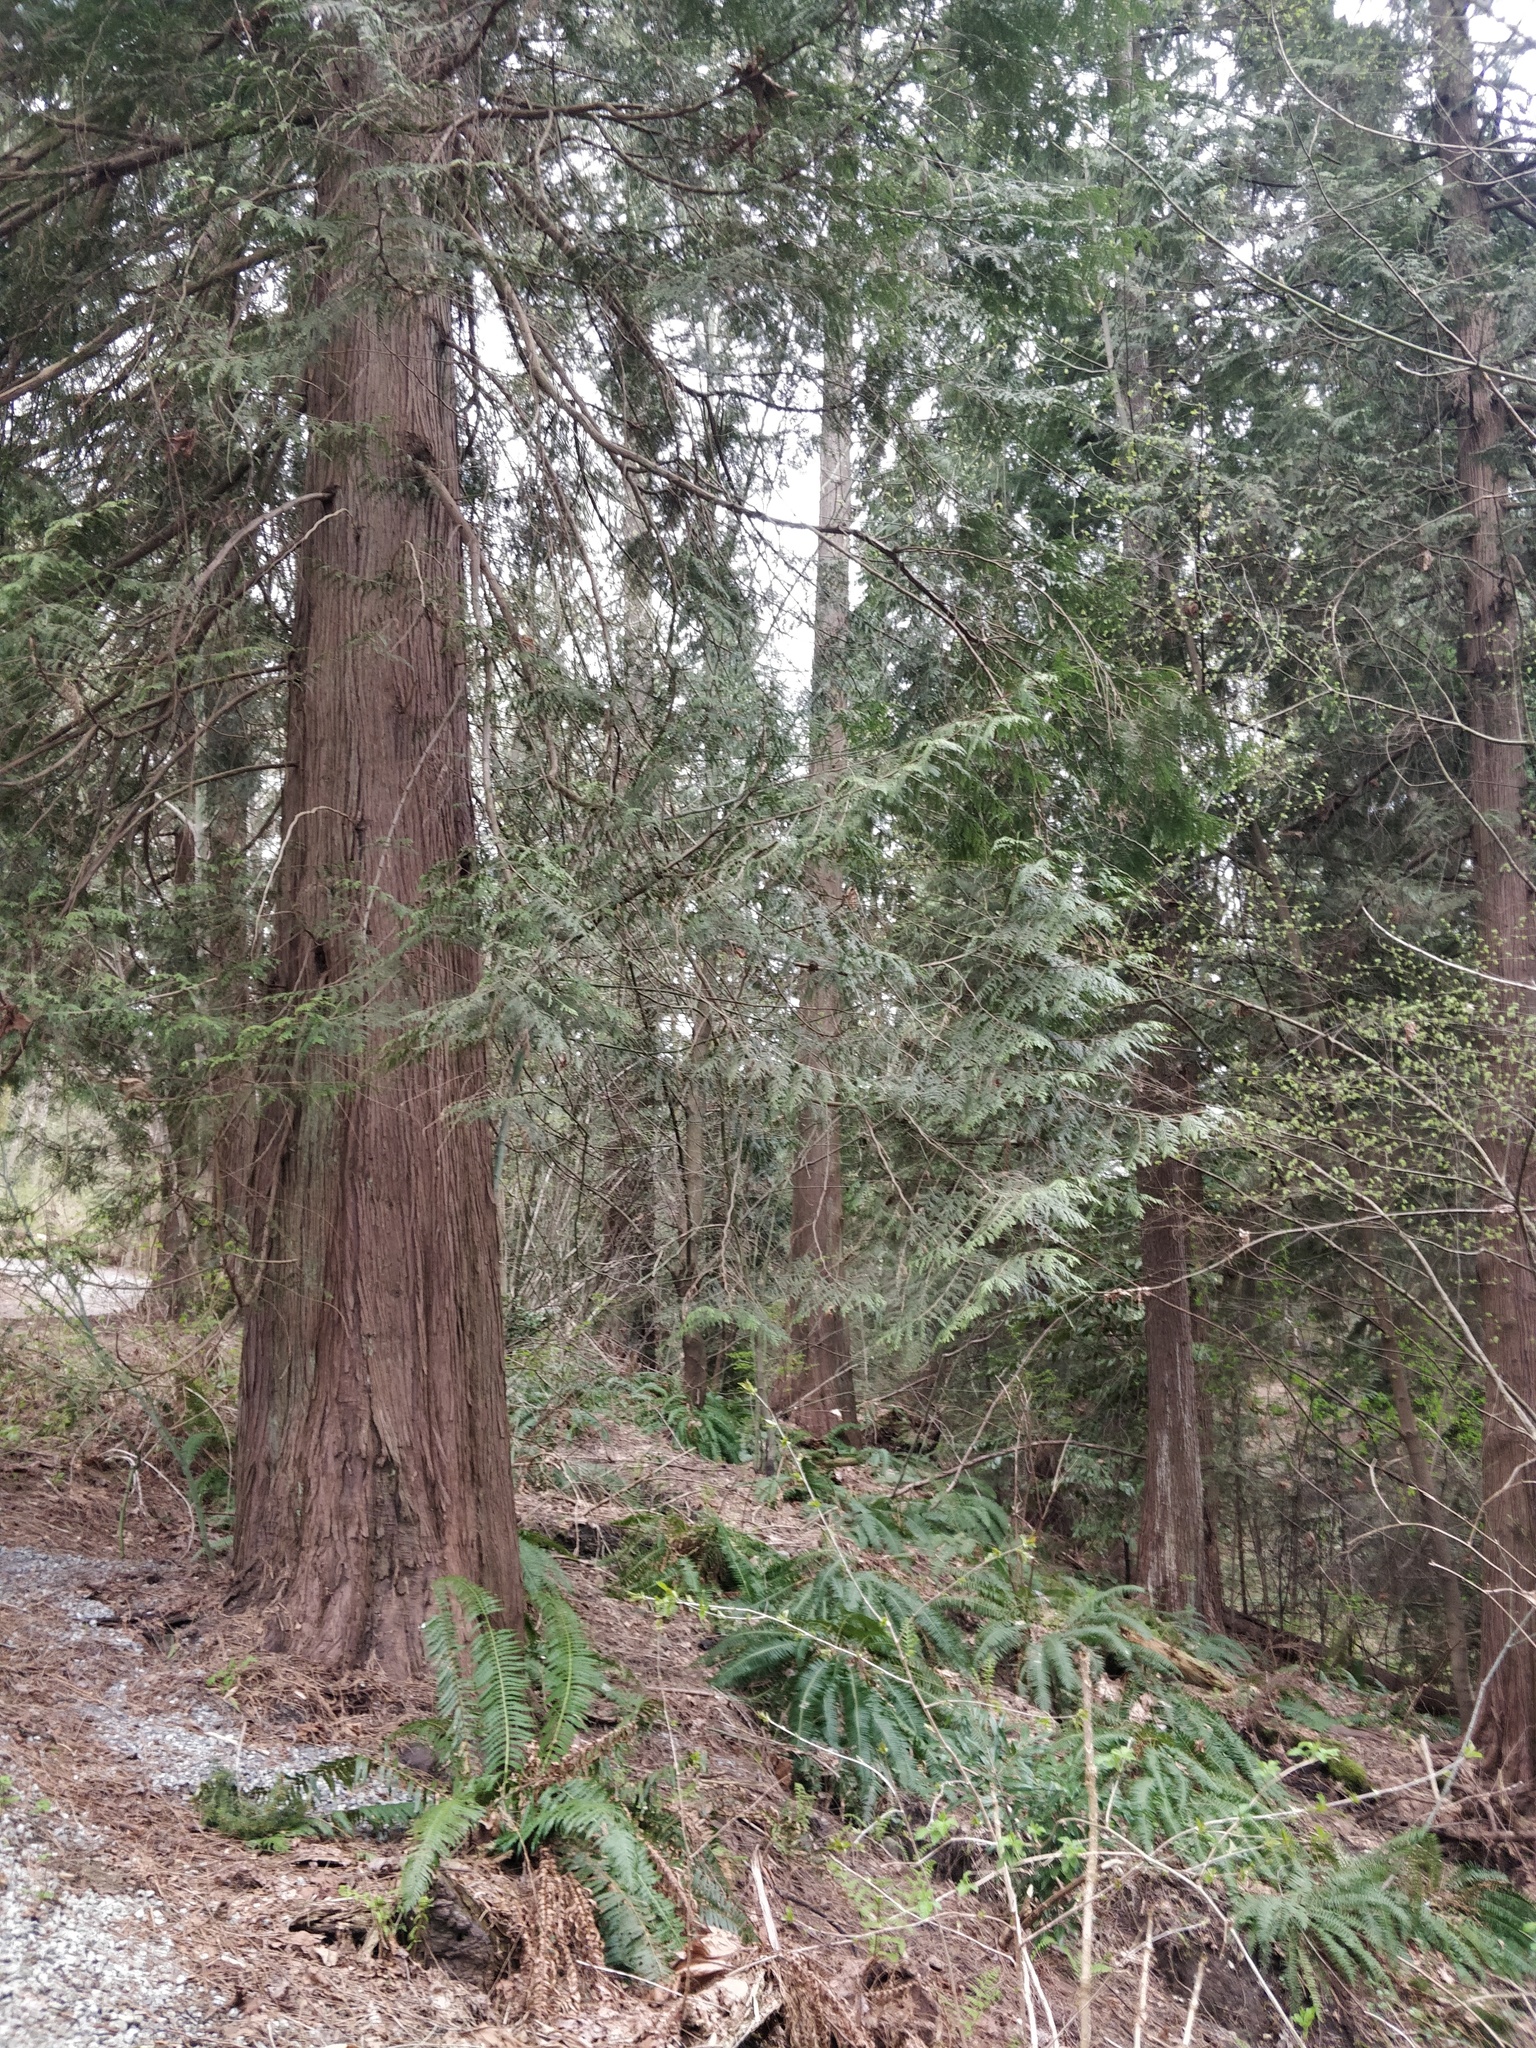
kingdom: Plantae
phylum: Tracheophyta
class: Pinopsida
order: Pinales
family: Cupressaceae
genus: Thuja
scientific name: Thuja plicata
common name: Western red-cedar
